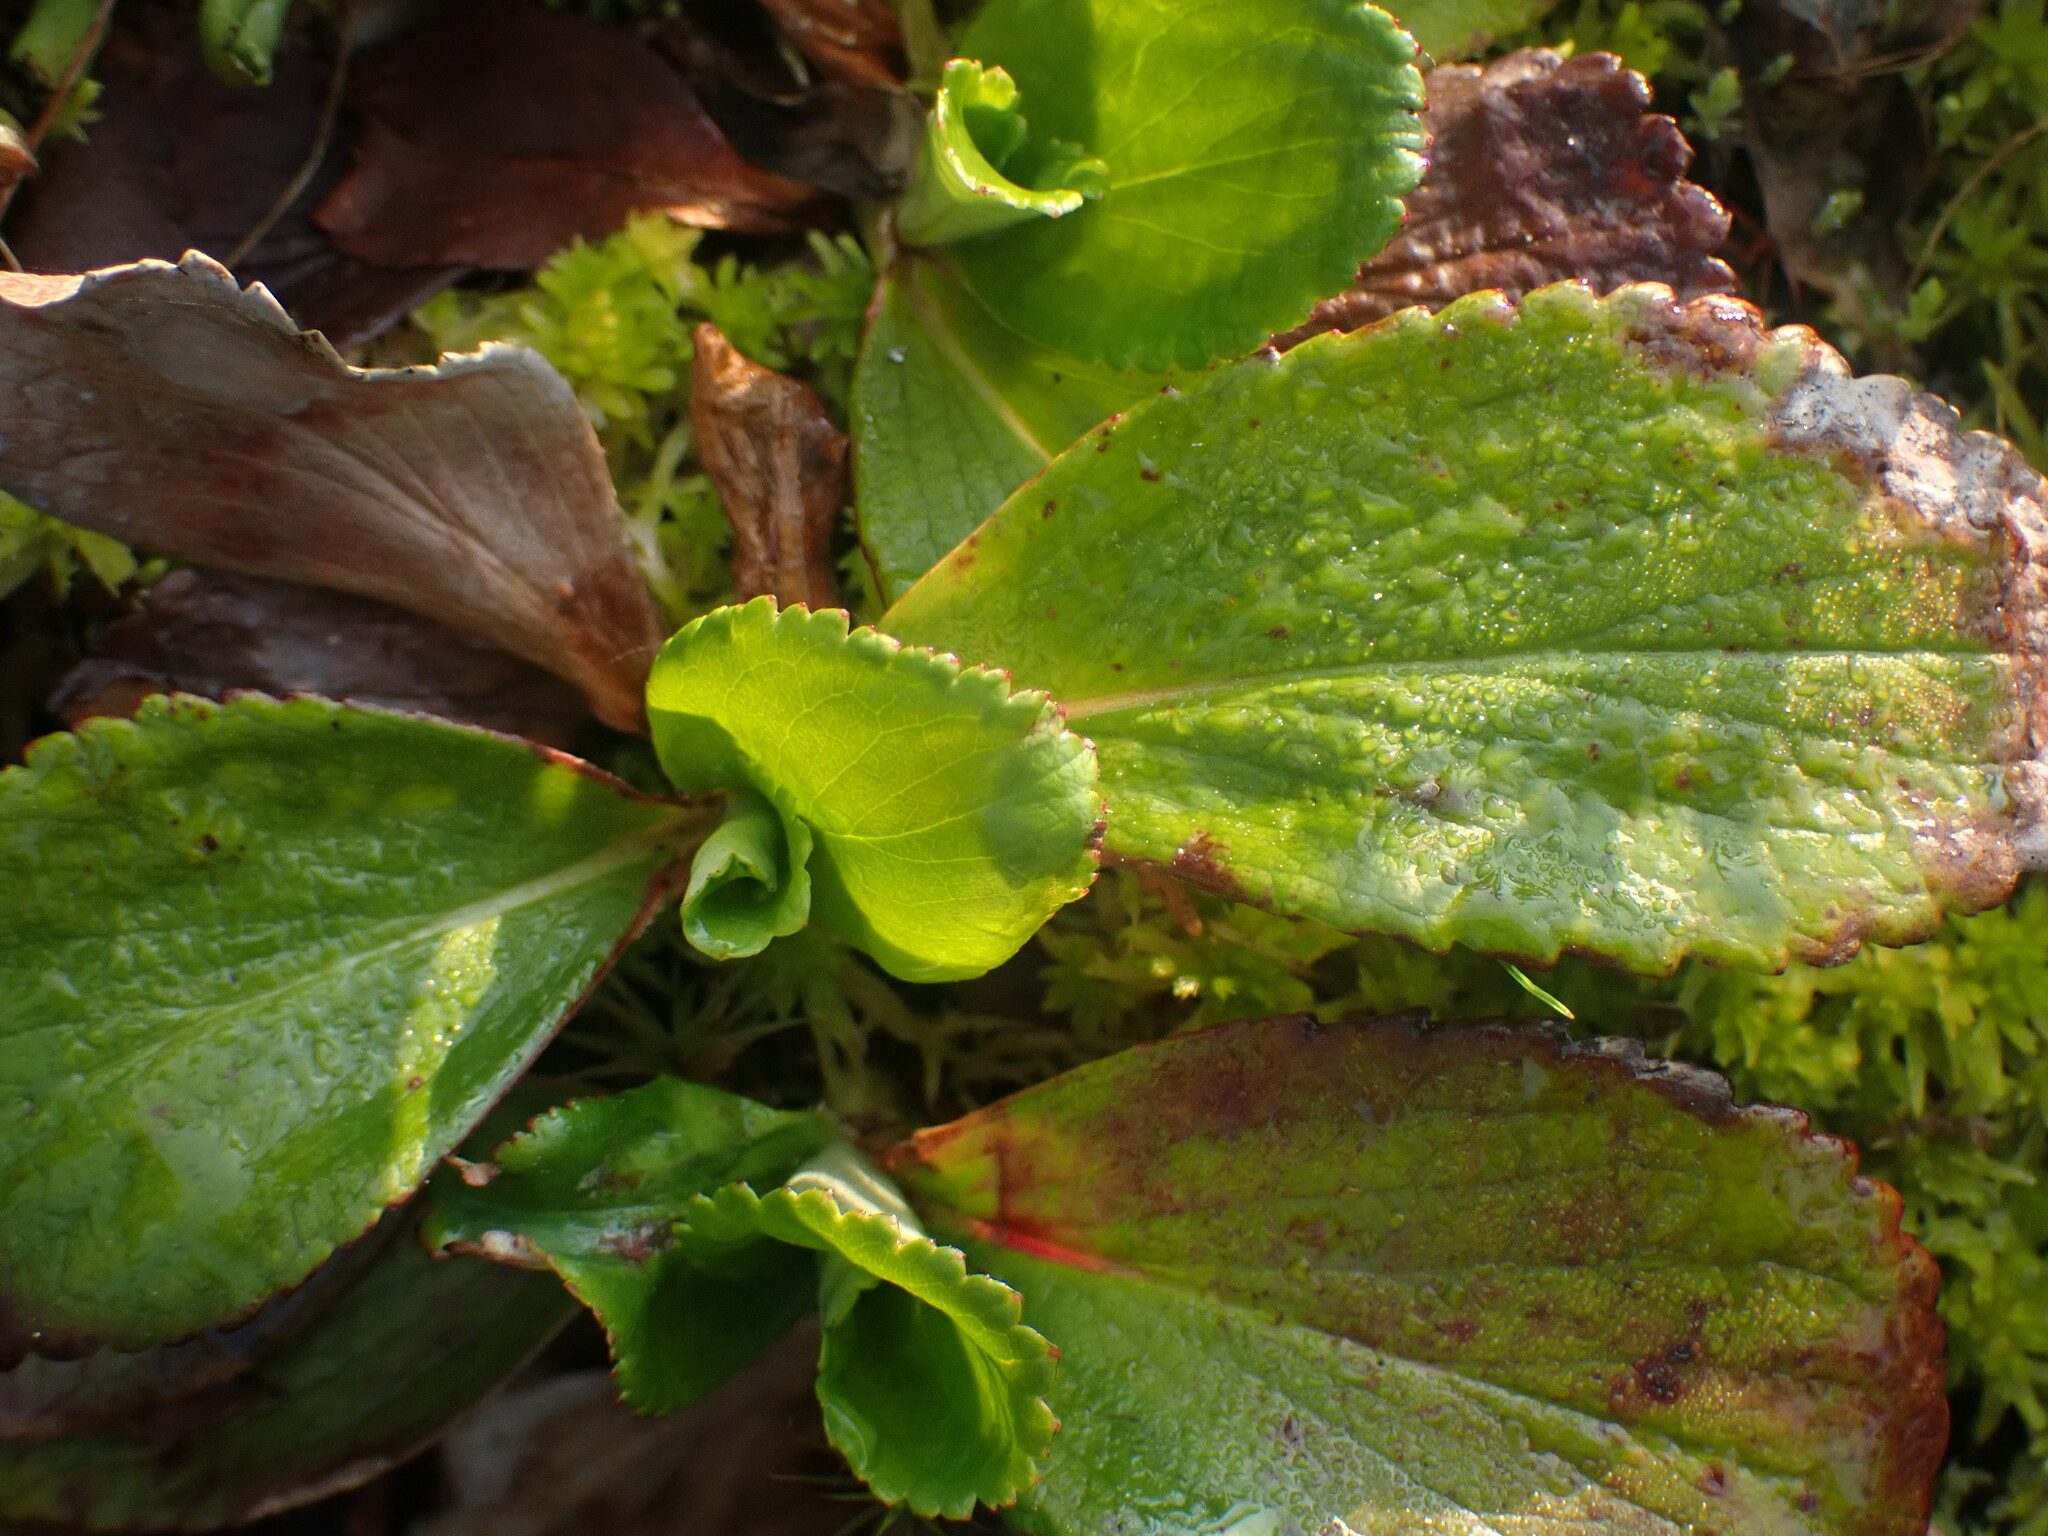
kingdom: Plantae
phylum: Tracheophyta
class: Magnoliopsida
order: Saxifragales
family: Saxifragaceae
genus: Leptarrhena
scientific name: Leptarrhena pyrolifolia
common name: Leatherleaf-saxifrage
